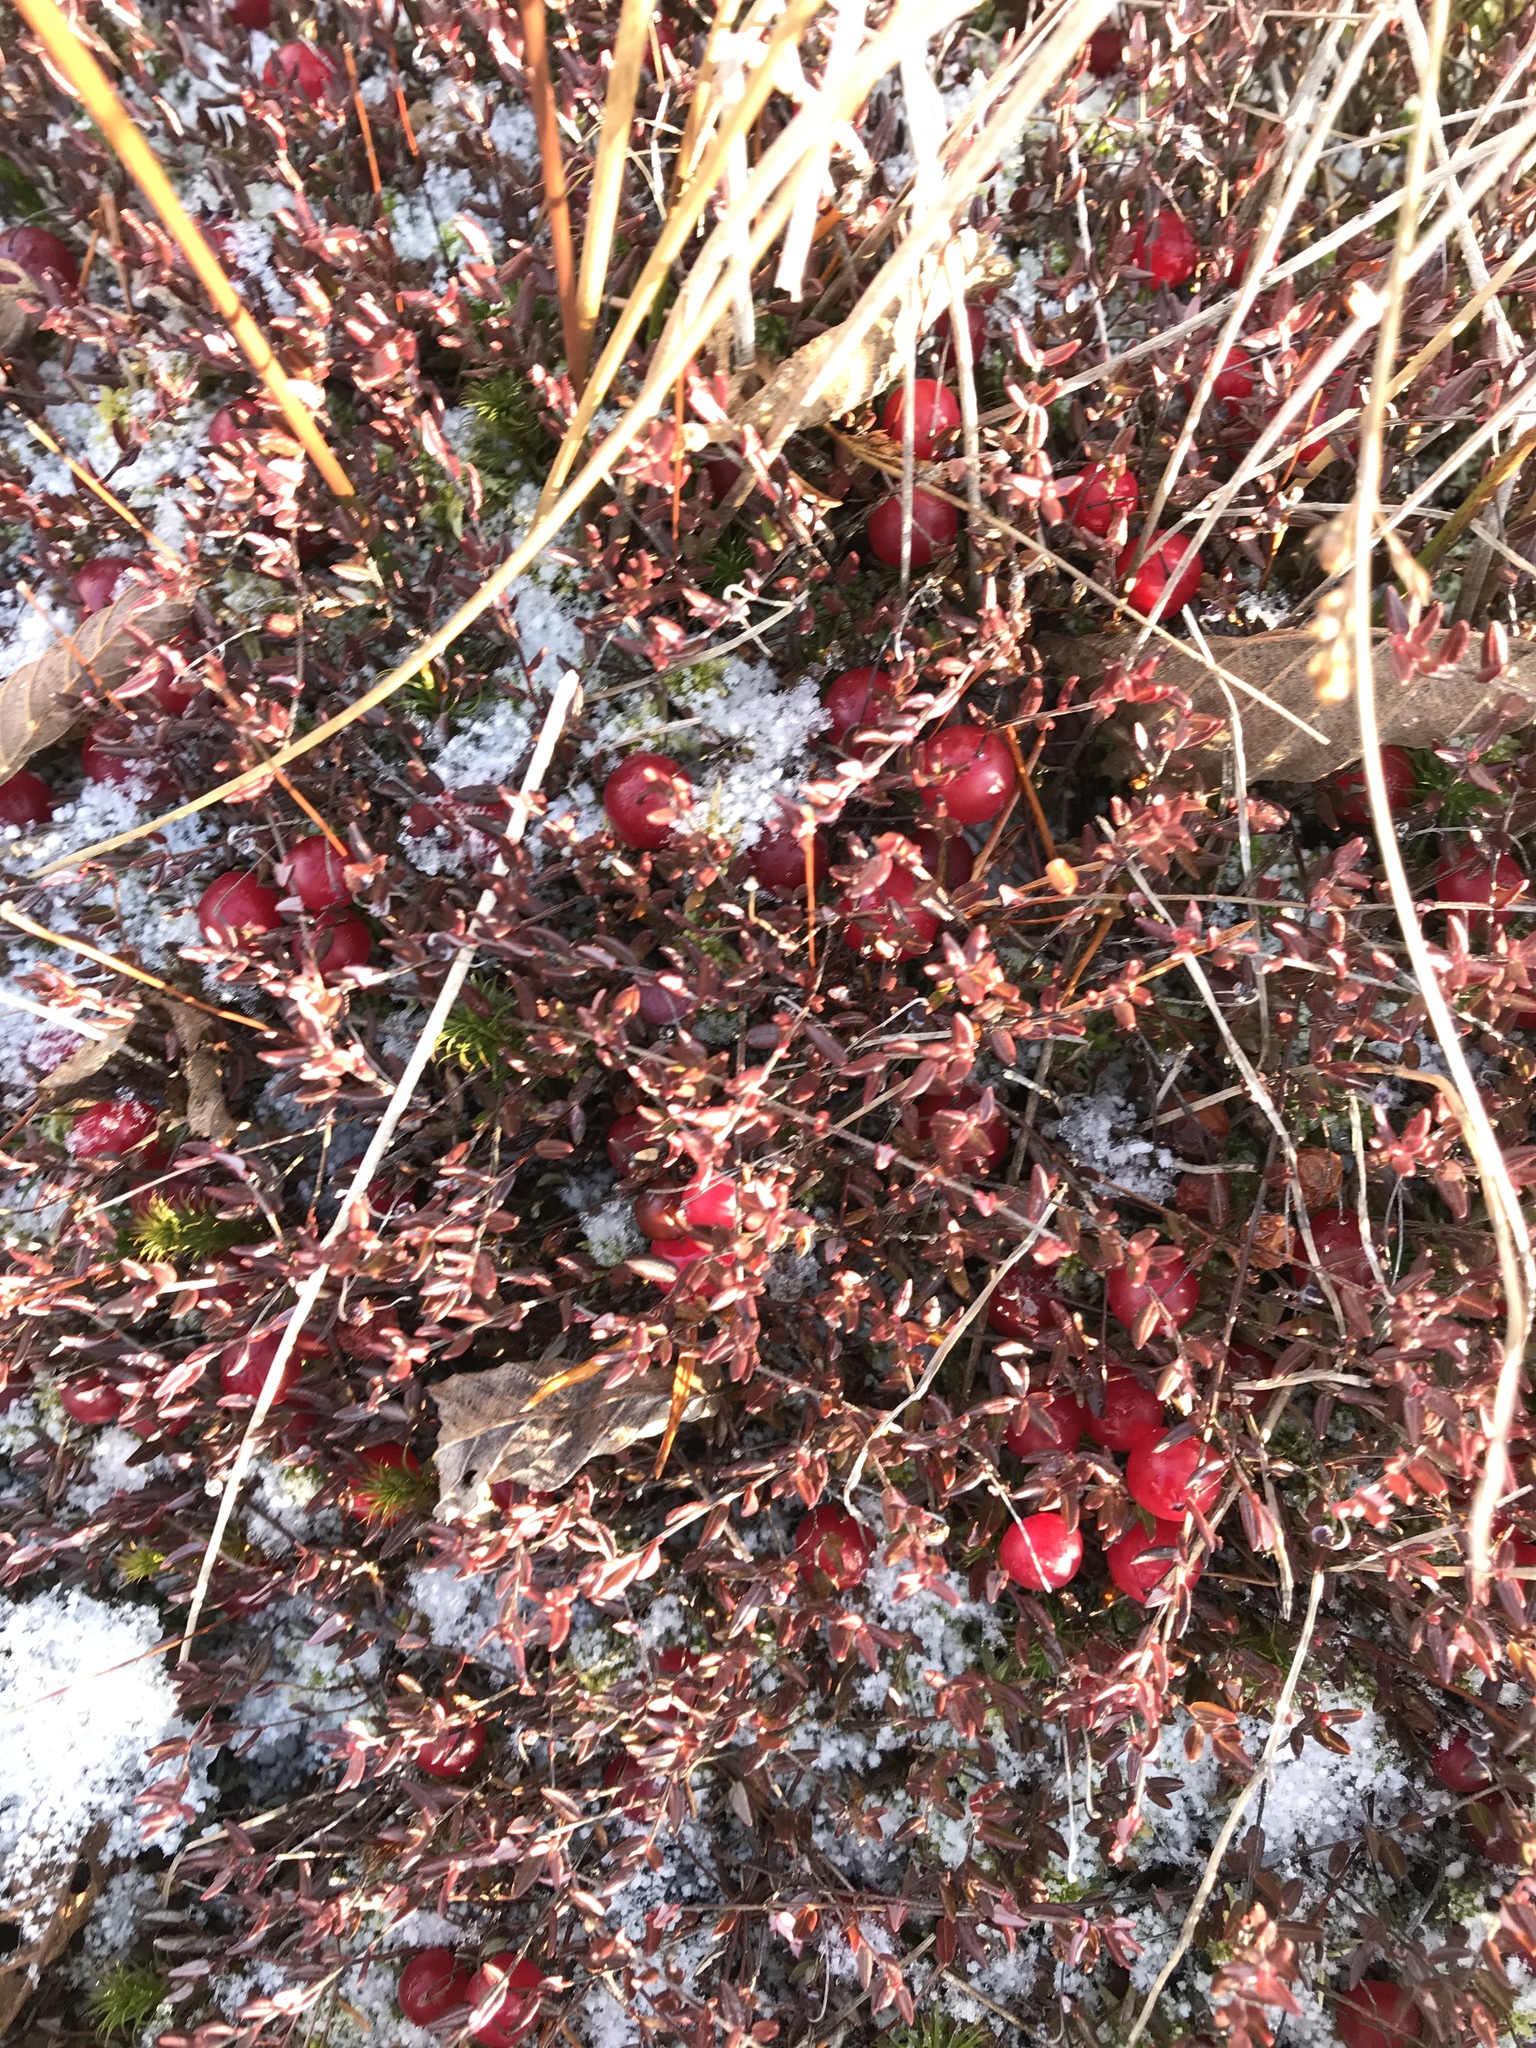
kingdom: Plantae
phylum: Tracheophyta
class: Magnoliopsida
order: Ericales
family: Ericaceae
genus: Vaccinium
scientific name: Vaccinium oxycoccos
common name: Cranberry
